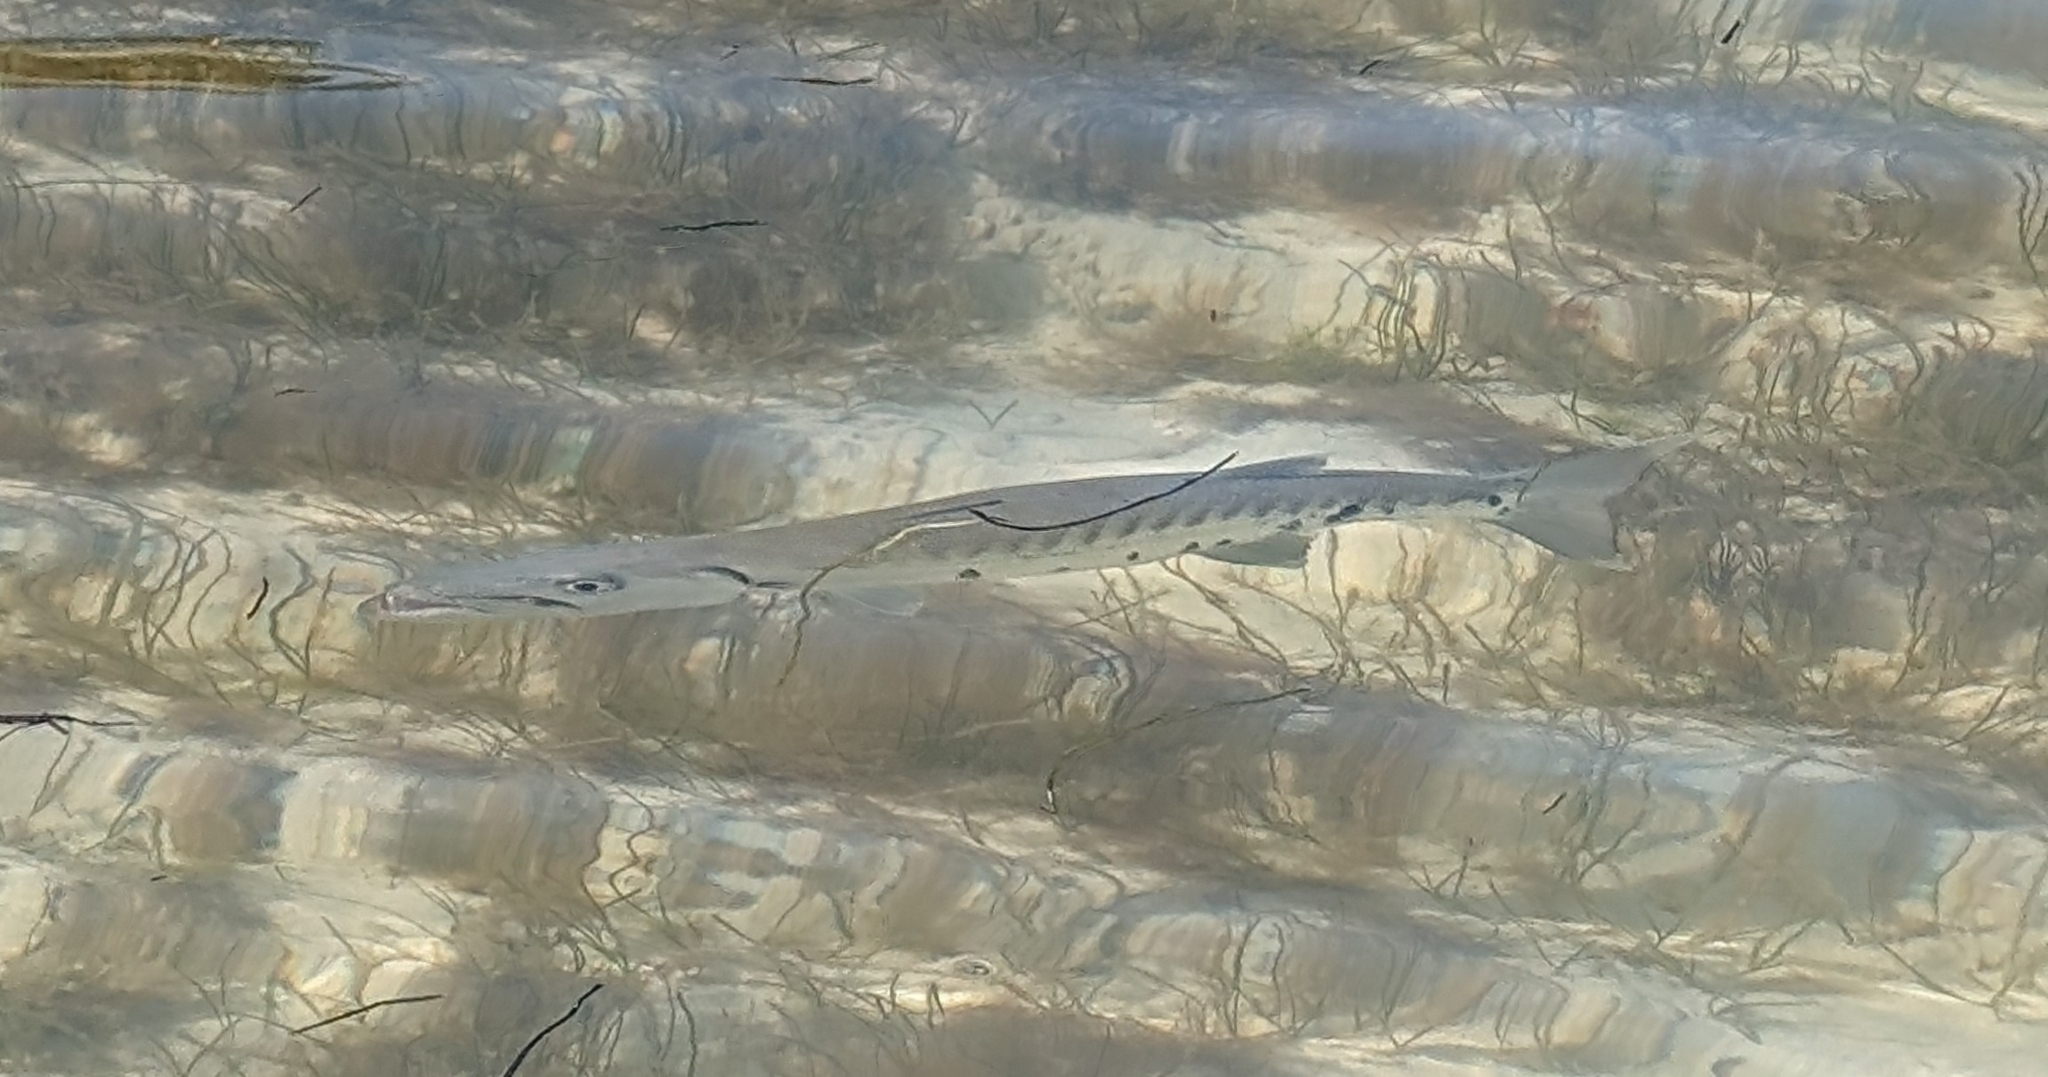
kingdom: Animalia
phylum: Chordata
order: Perciformes
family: Sphyraenidae
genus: Sphyraena
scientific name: Sphyraena barracuda
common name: Great barracuda
